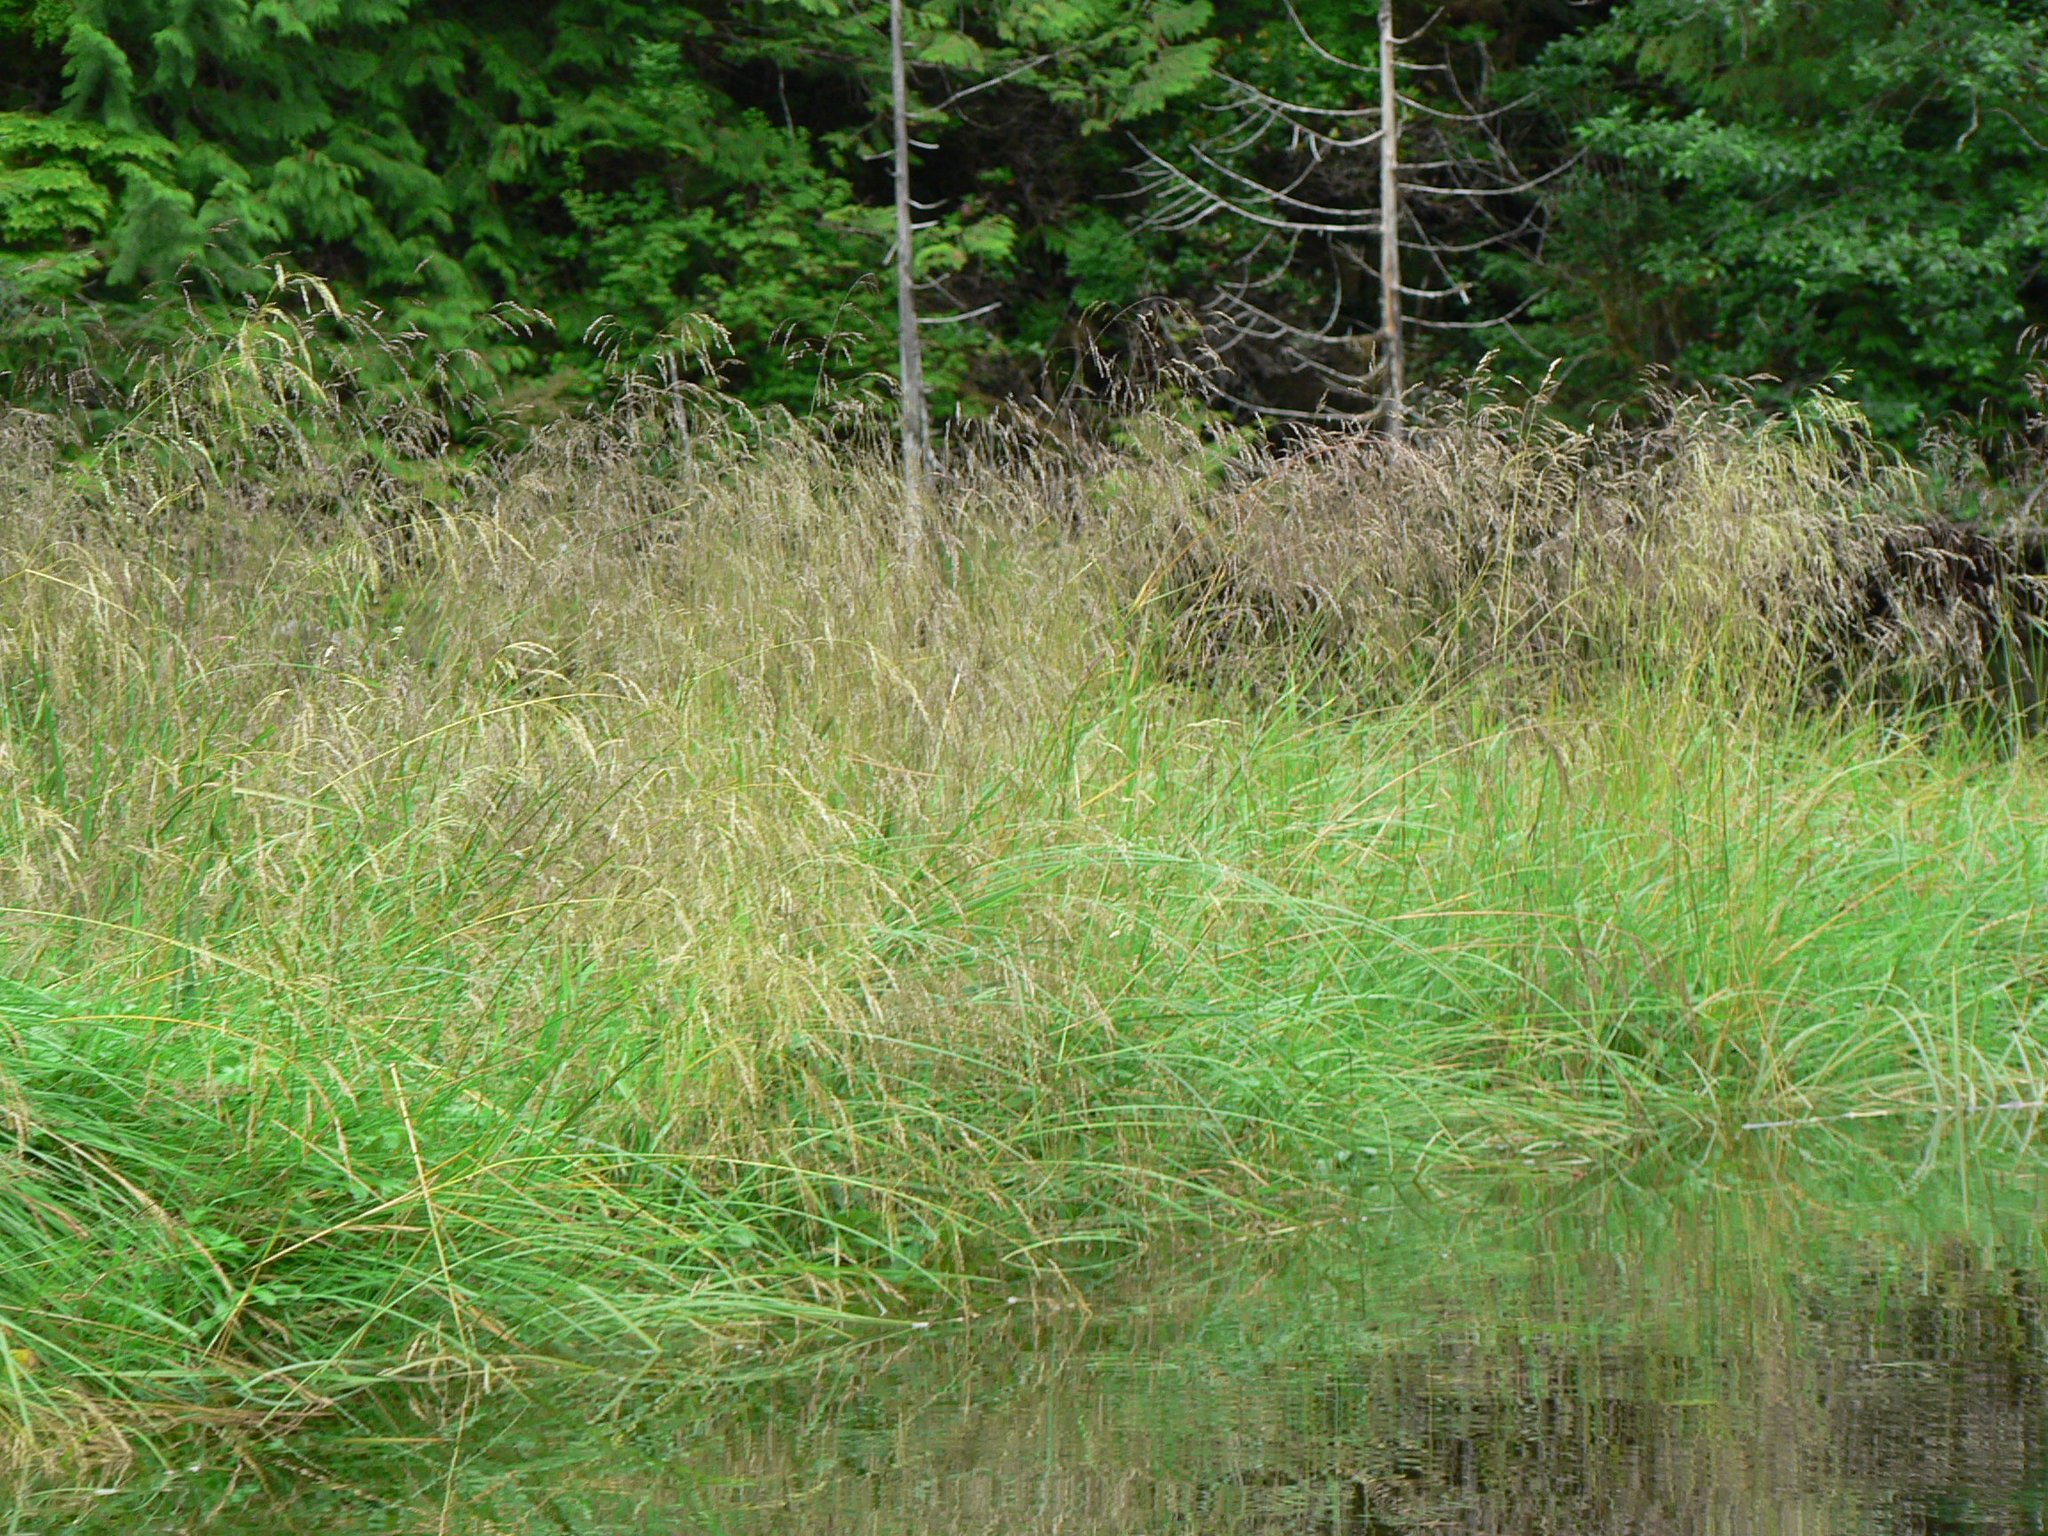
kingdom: Plantae
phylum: Tracheophyta
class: Liliopsida
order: Poales
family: Poaceae
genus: Deschampsia
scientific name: Deschampsia cespitosa
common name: Tufted hair-grass
